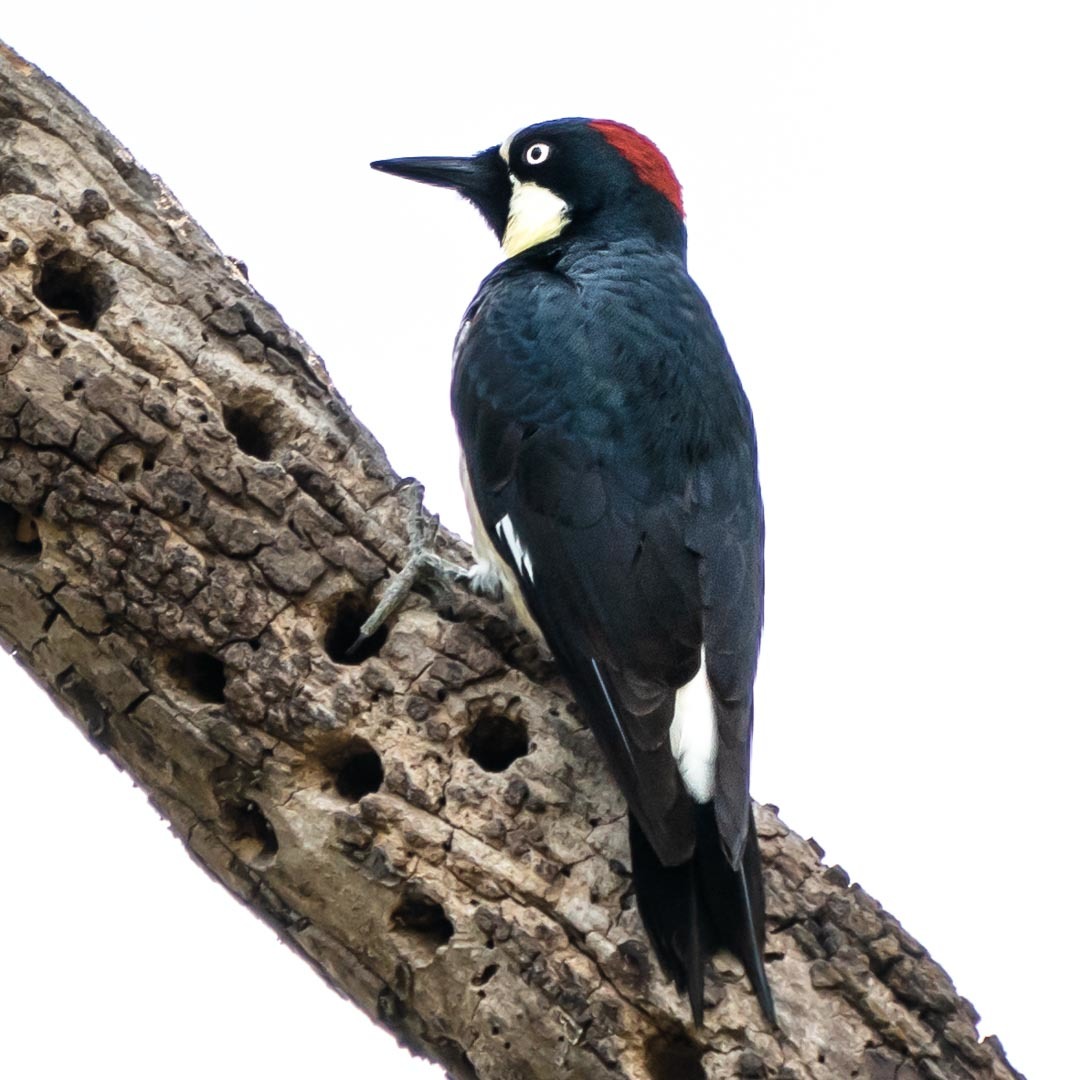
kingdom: Animalia
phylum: Chordata
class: Aves
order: Piciformes
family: Picidae
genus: Melanerpes
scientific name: Melanerpes formicivorus
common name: Acorn woodpecker
